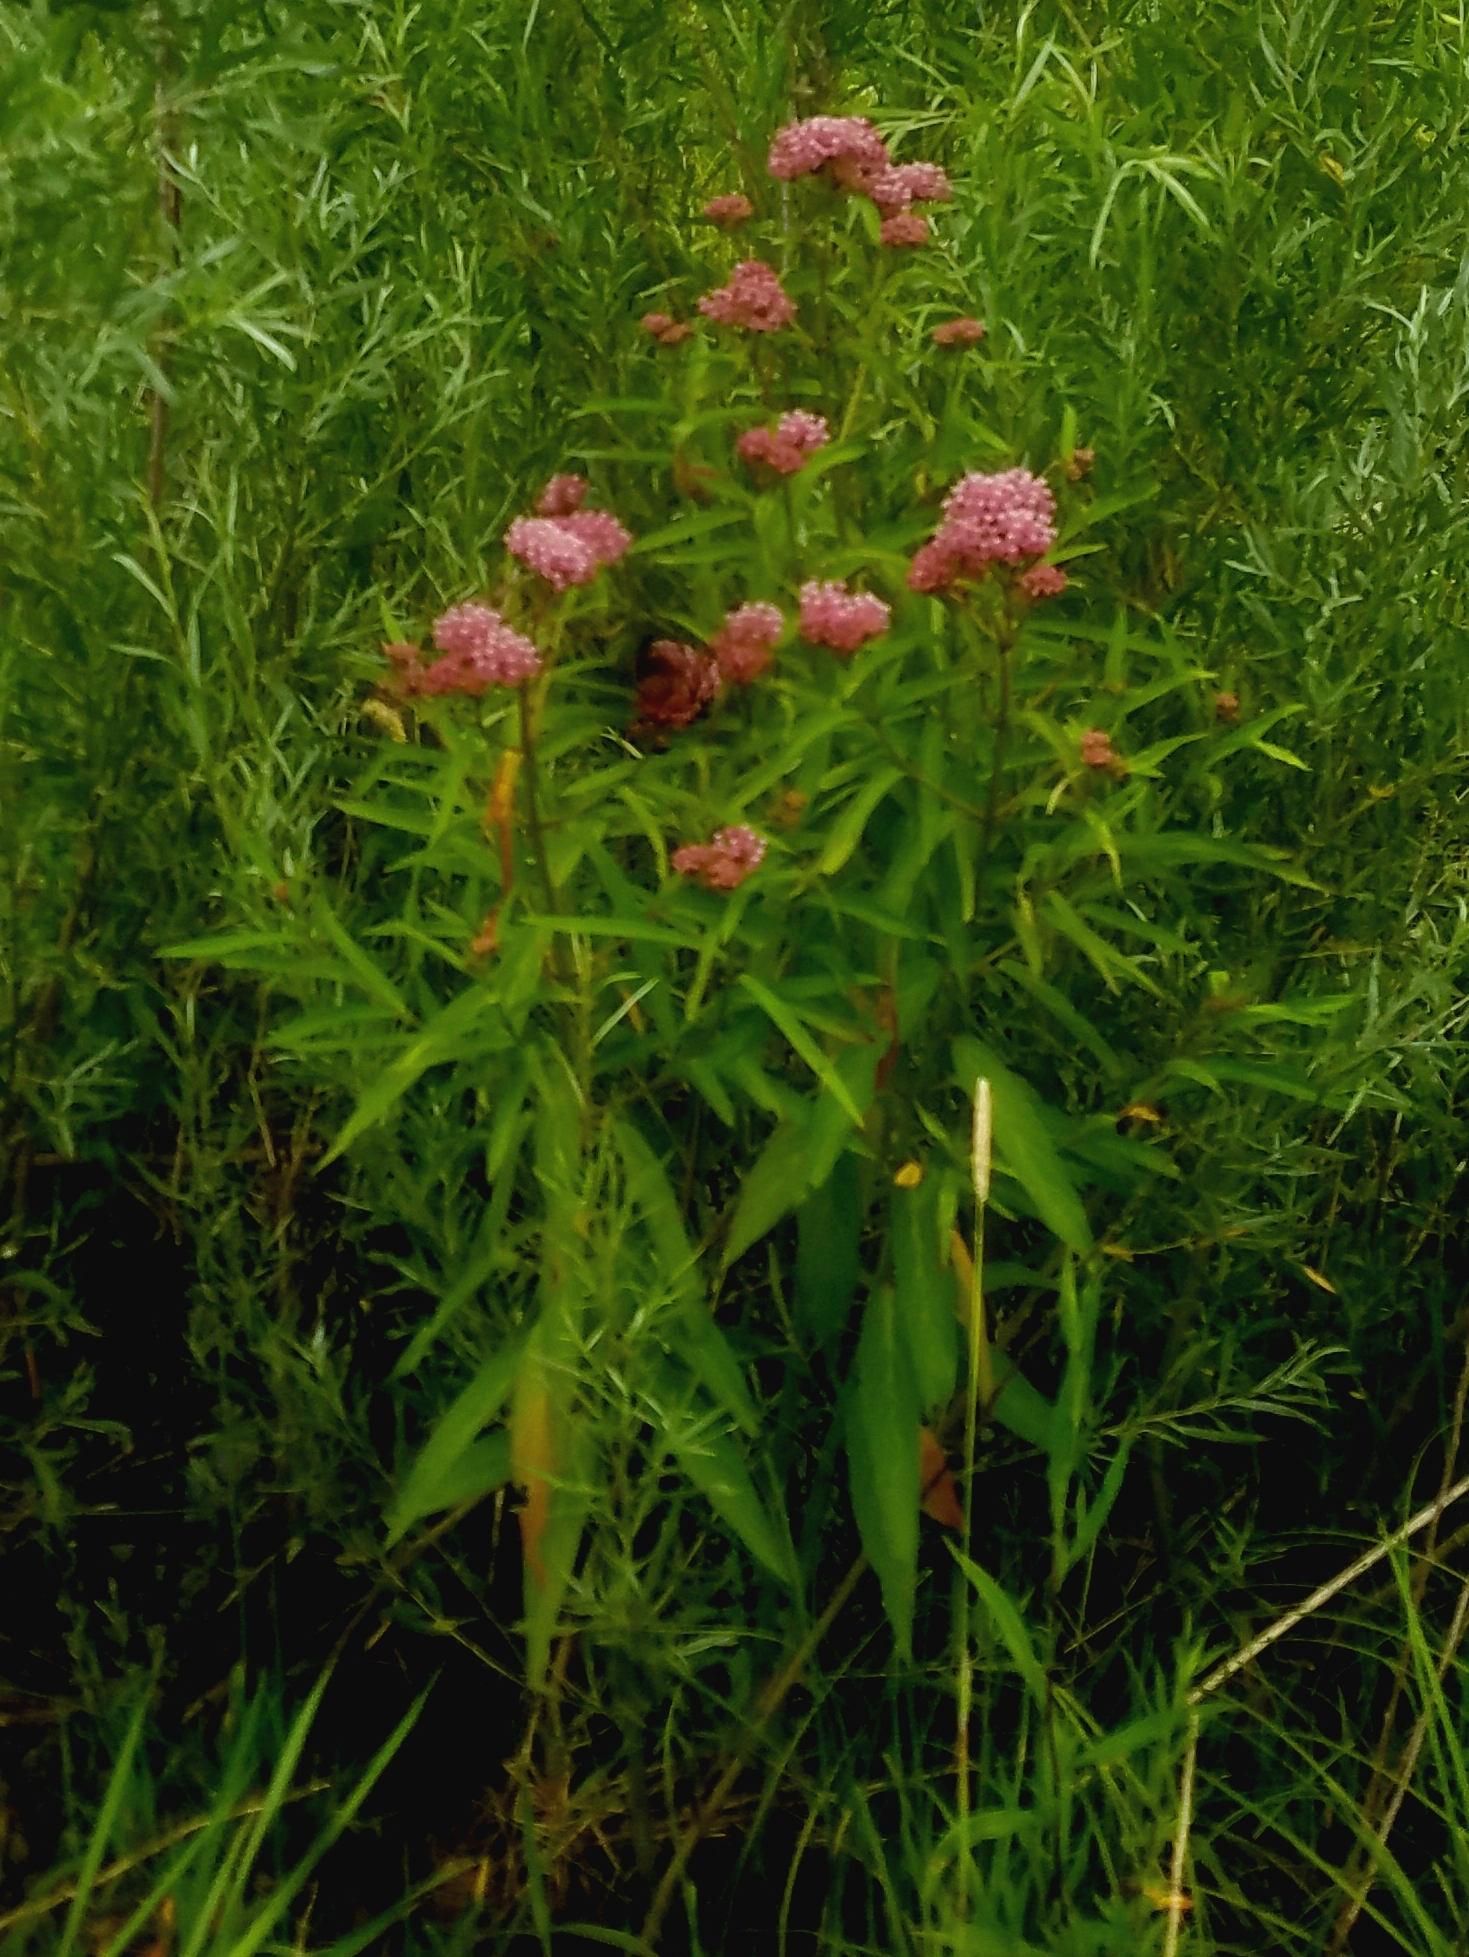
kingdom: Plantae
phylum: Tracheophyta
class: Magnoliopsida
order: Gentianales
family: Apocynaceae
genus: Asclepias
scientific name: Asclepias incarnata
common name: Swamp milkweed
